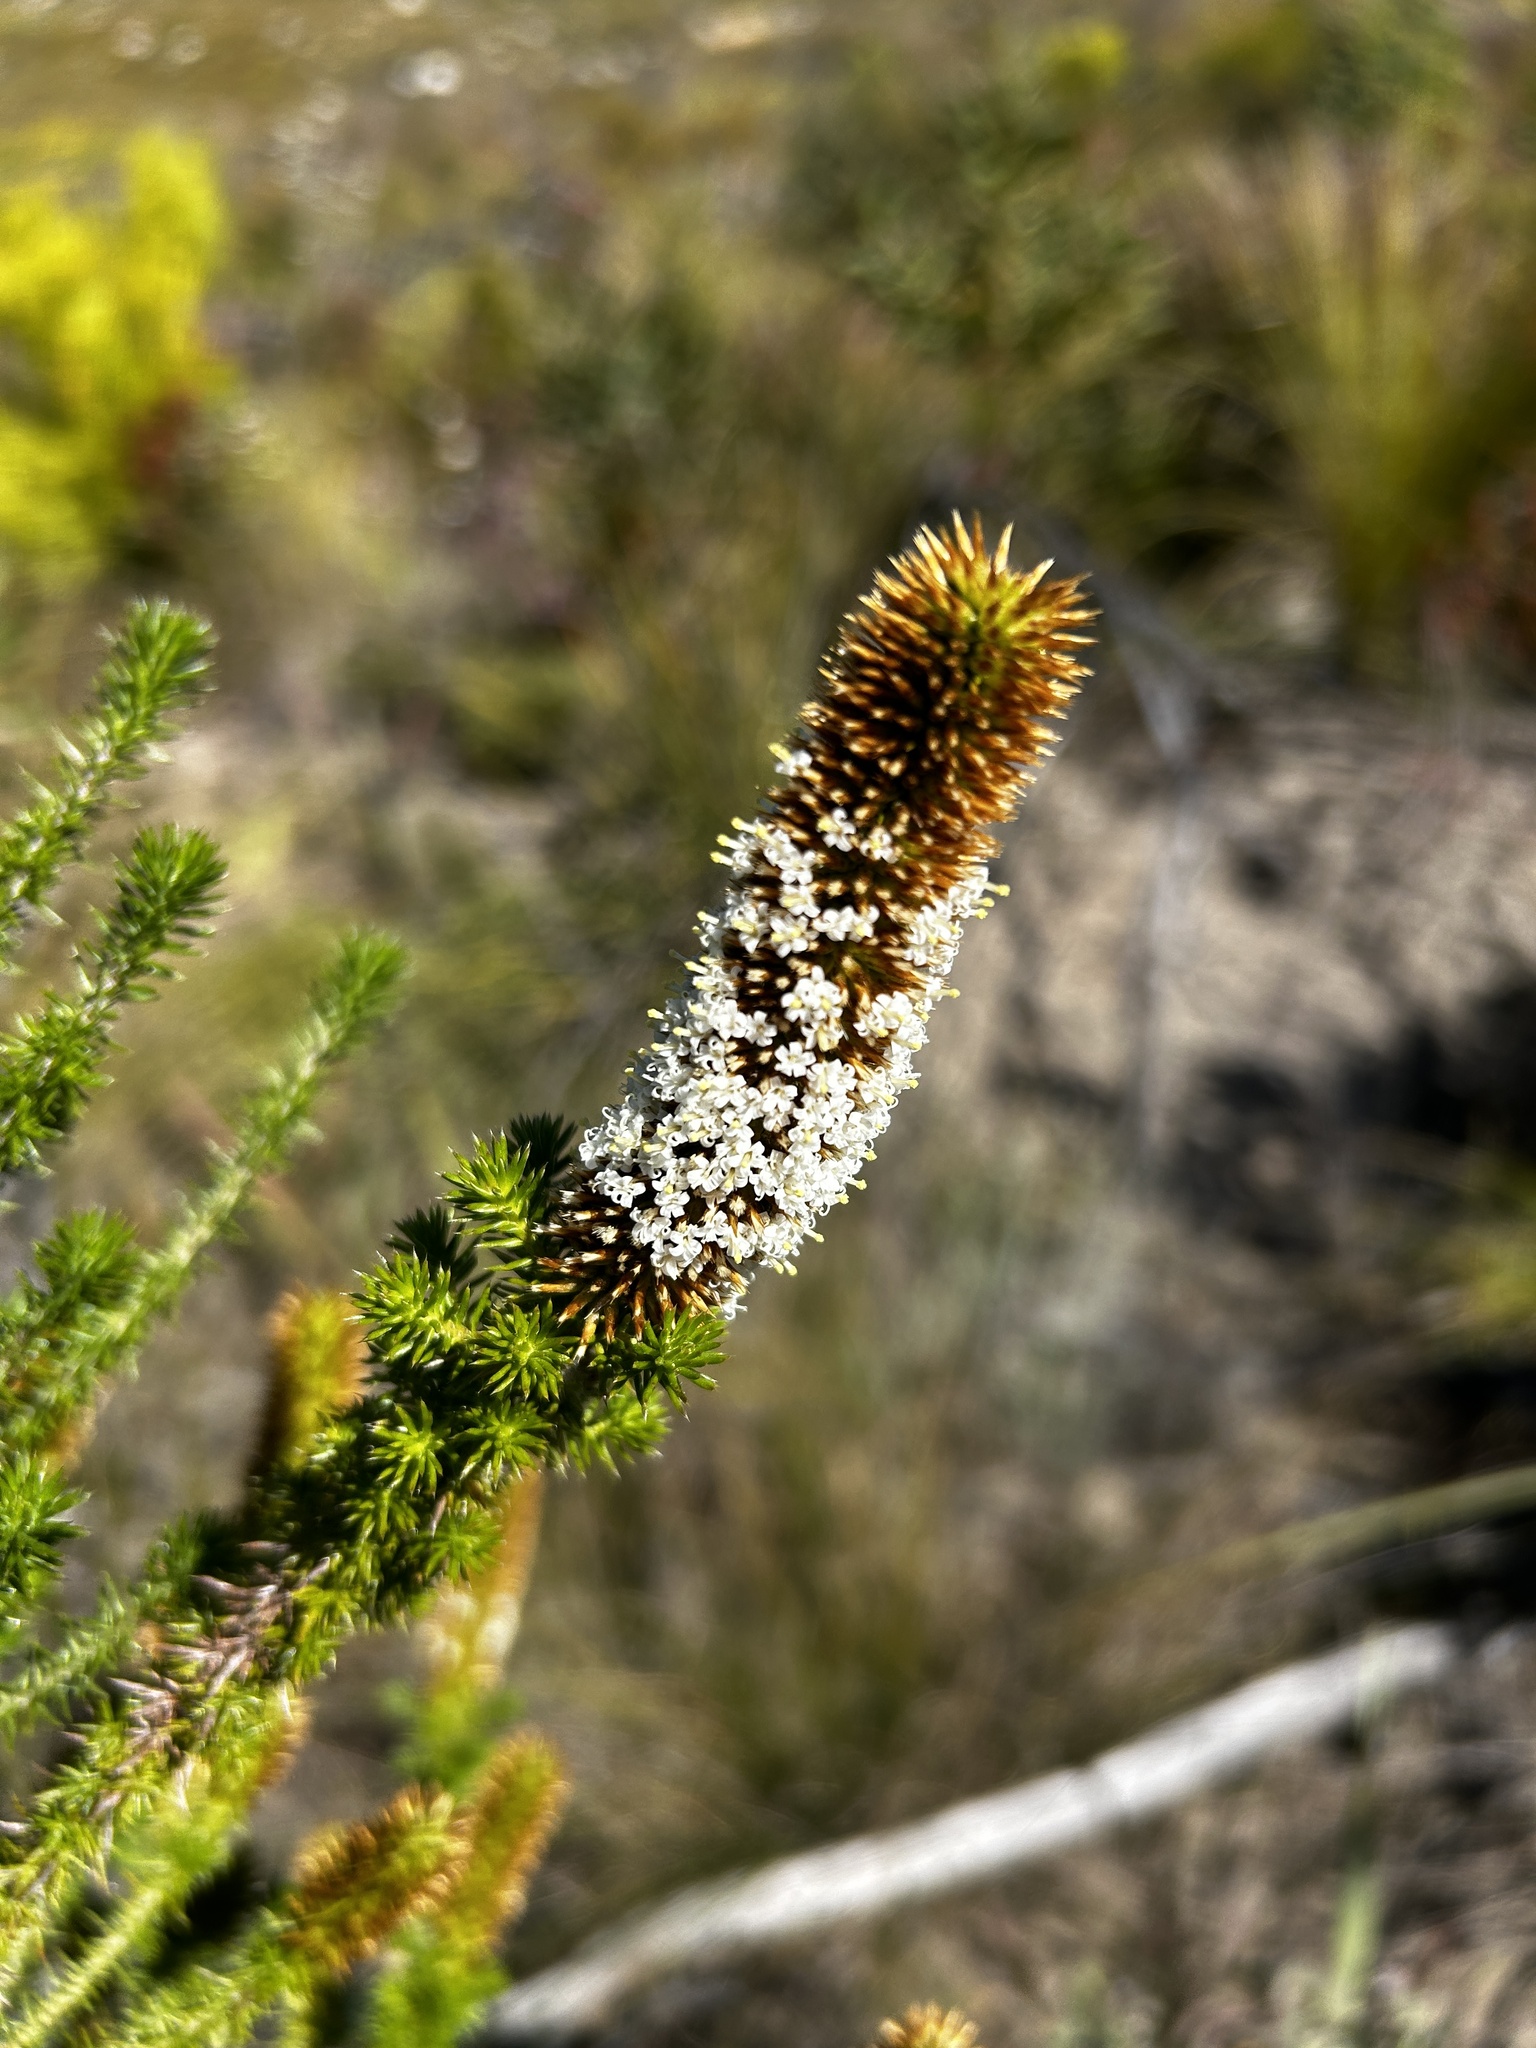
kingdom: Plantae
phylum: Tracheophyta
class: Magnoliopsida
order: Asterales
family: Asteraceae
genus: Stoebe
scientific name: Stoebe alopecuroides
